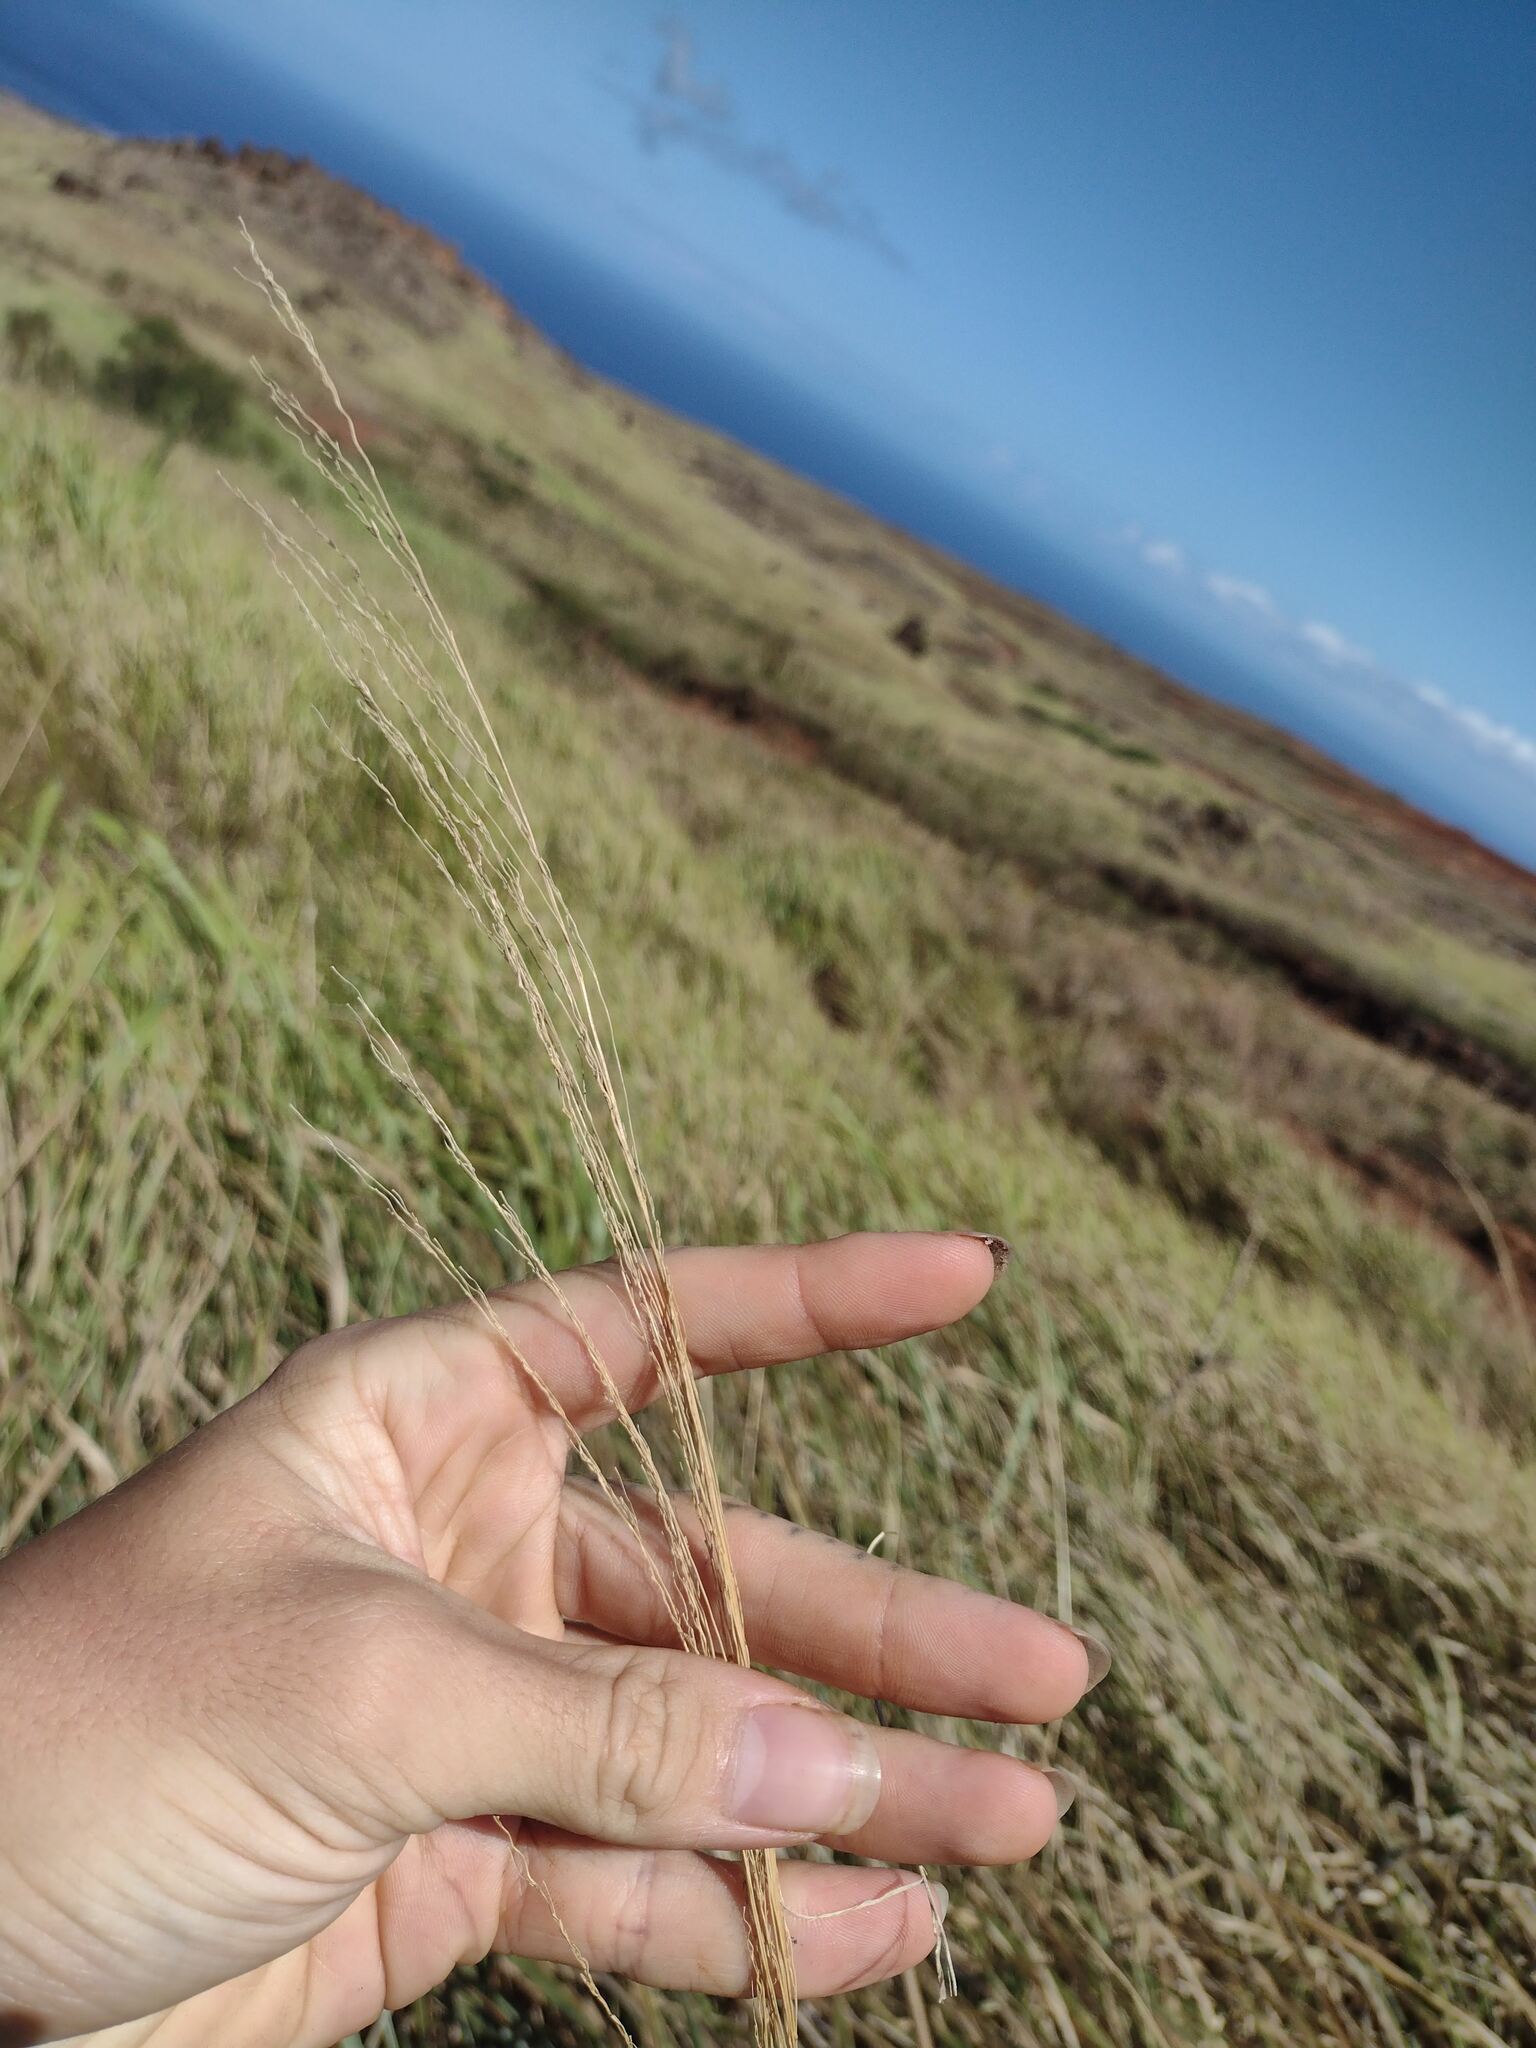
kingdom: Plantae
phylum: Tracheophyta
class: Liliopsida
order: Poales
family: Poaceae
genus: Megathyrsus
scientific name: Megathyrsus maximus
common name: Guineagrass
